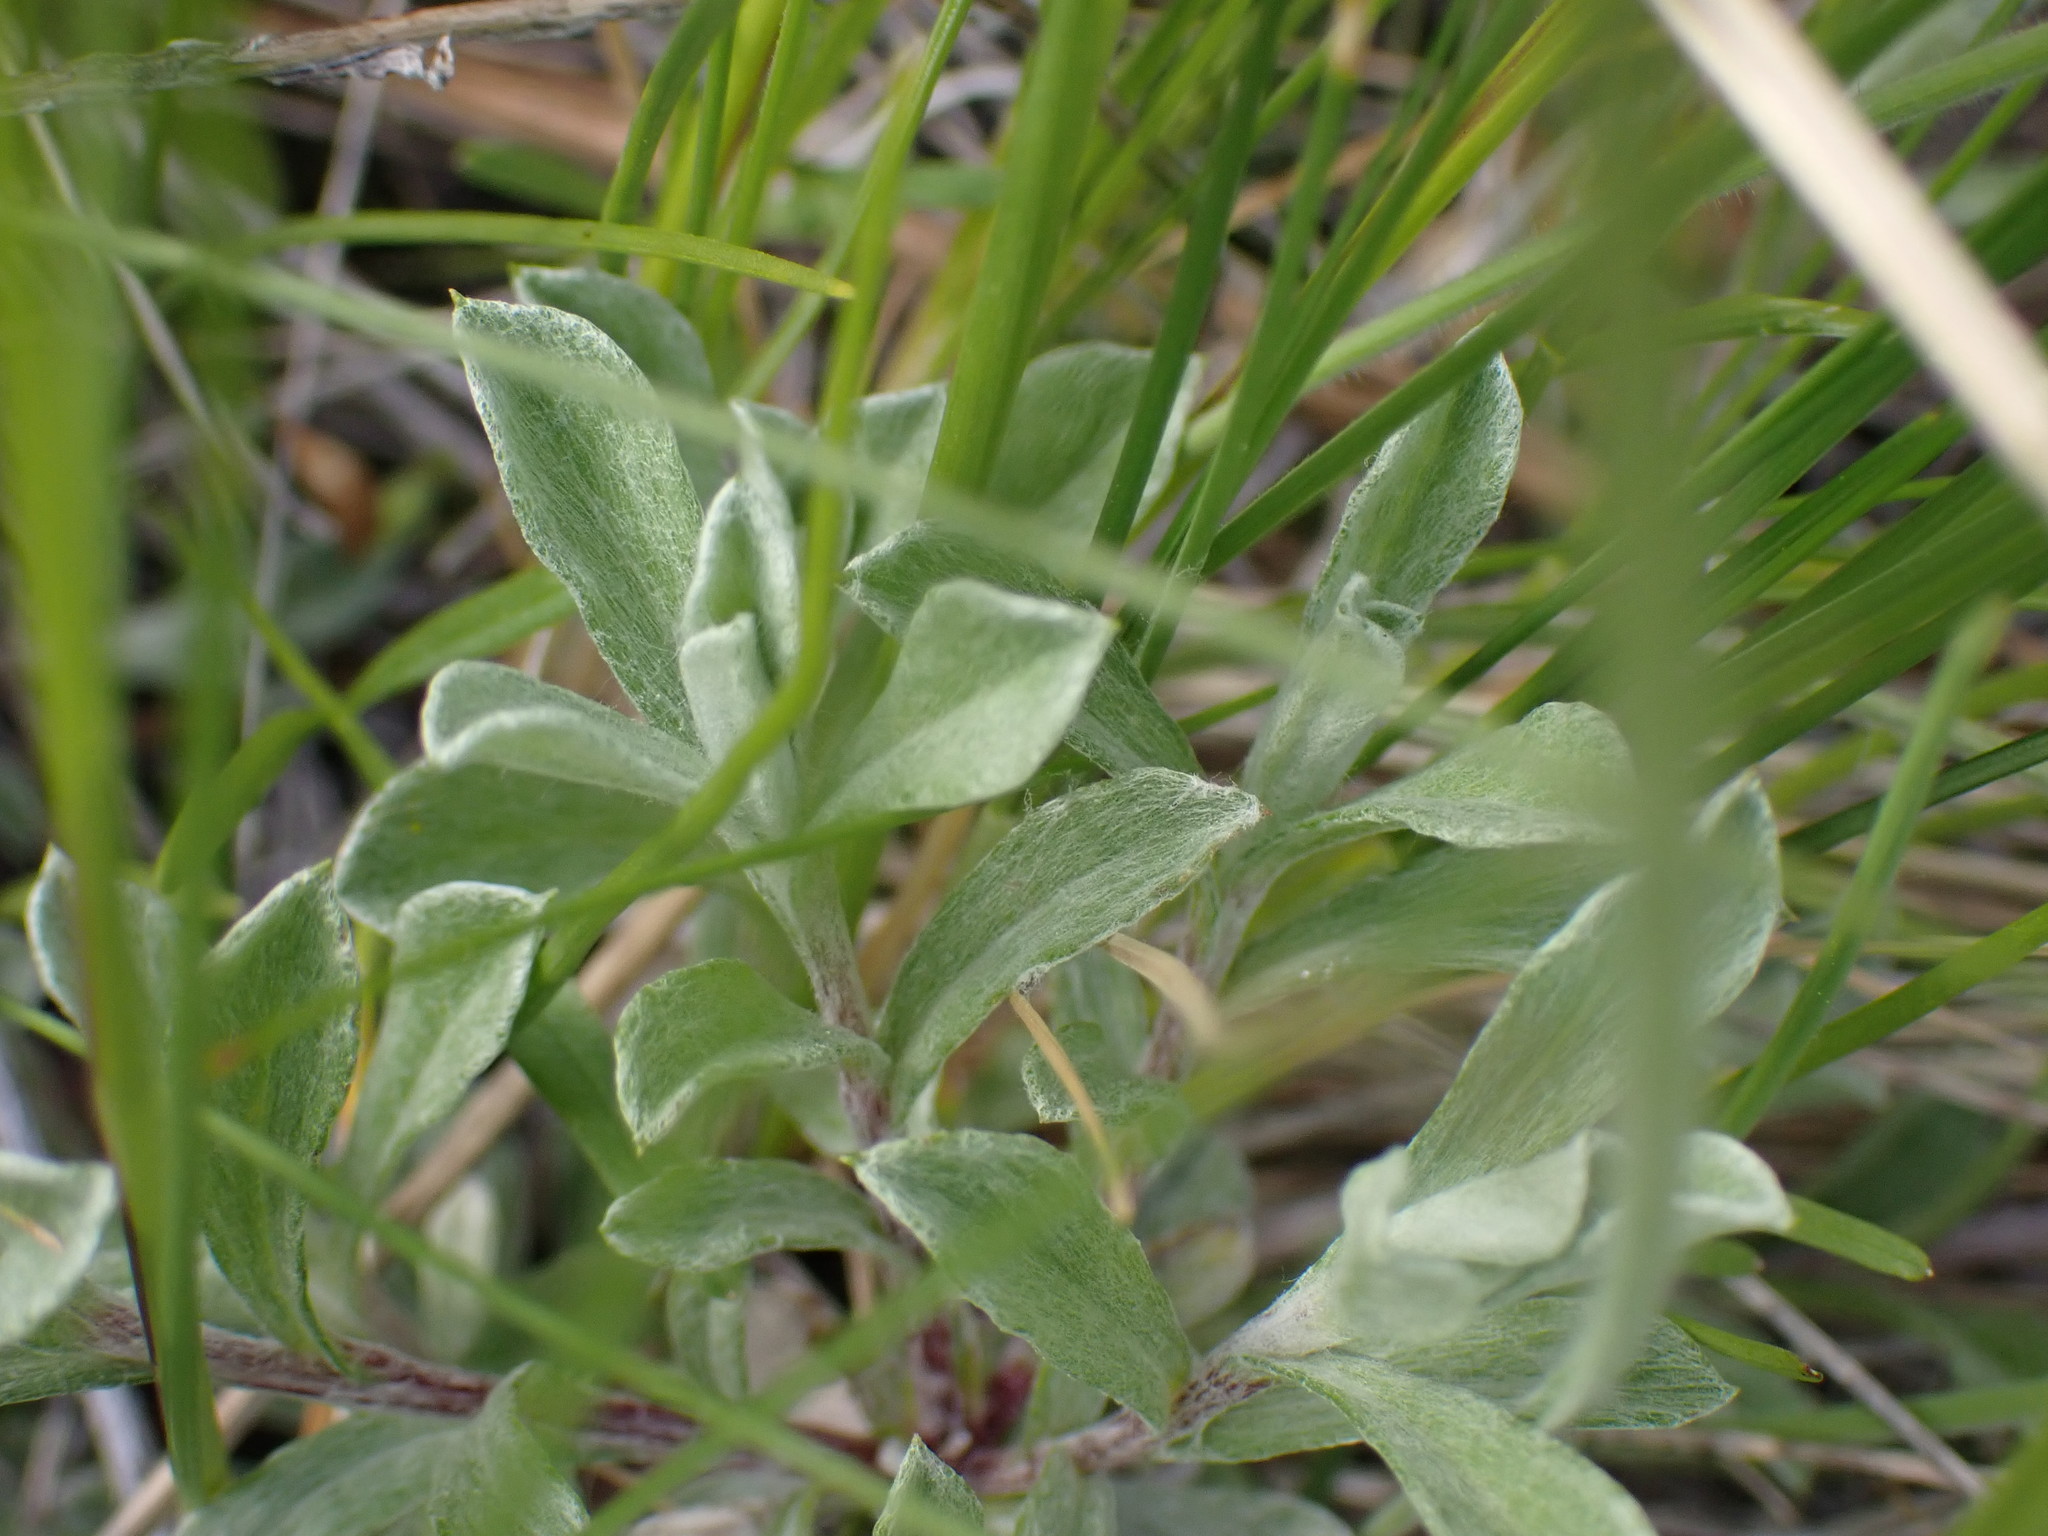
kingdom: Plantae
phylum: Tracheophyta
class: Magnoliopsida
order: Asterales
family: Asteraceae
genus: Antennaria
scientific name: Antennaria umbrinella
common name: Brown pussytoes
